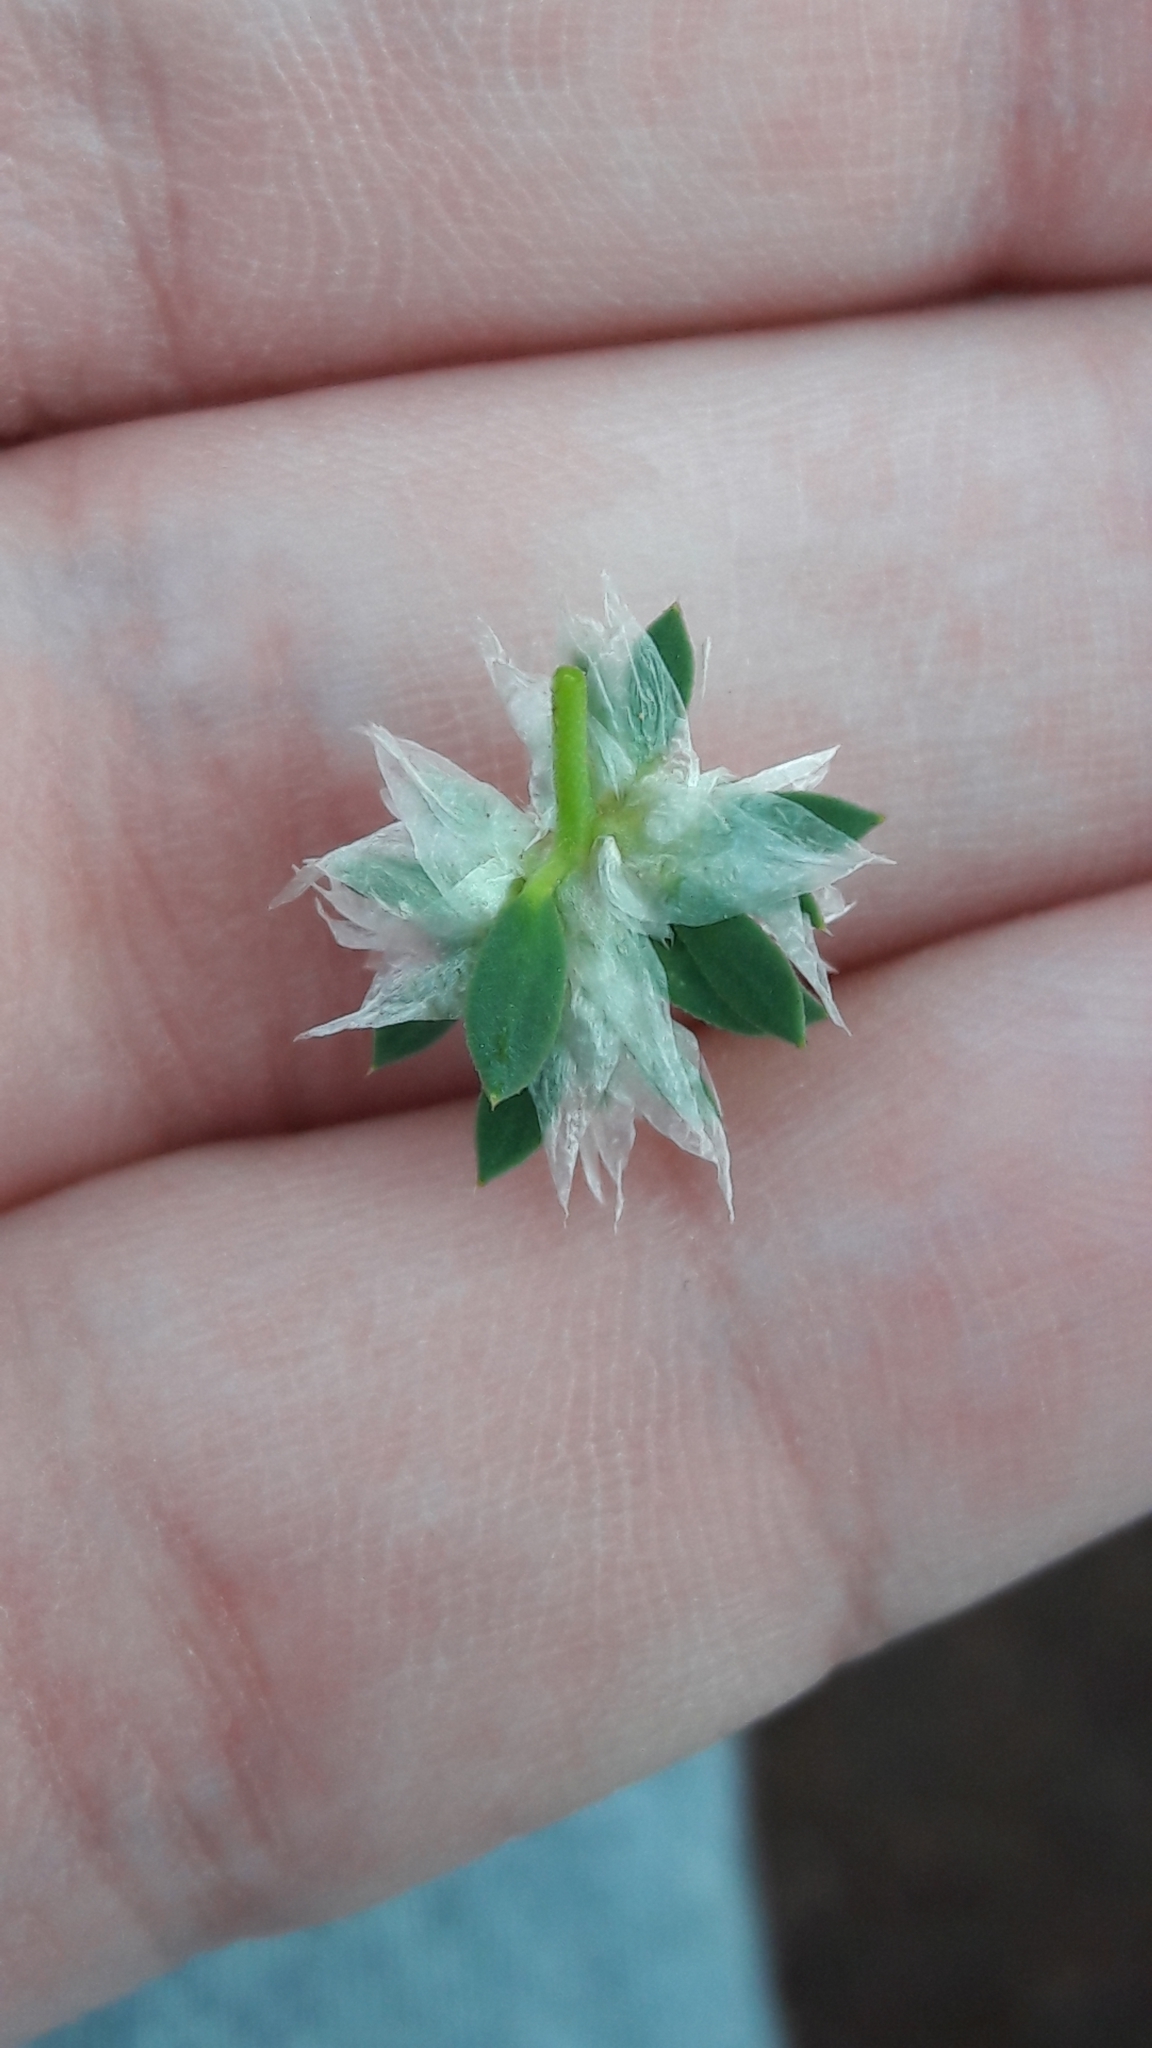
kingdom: Plantae
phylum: Tracheophyta
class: Magnoliopsida
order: Caryophyllales
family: Caryophyllaceae
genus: Paronychia
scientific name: Paronychia argentea
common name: Silver nailroot
